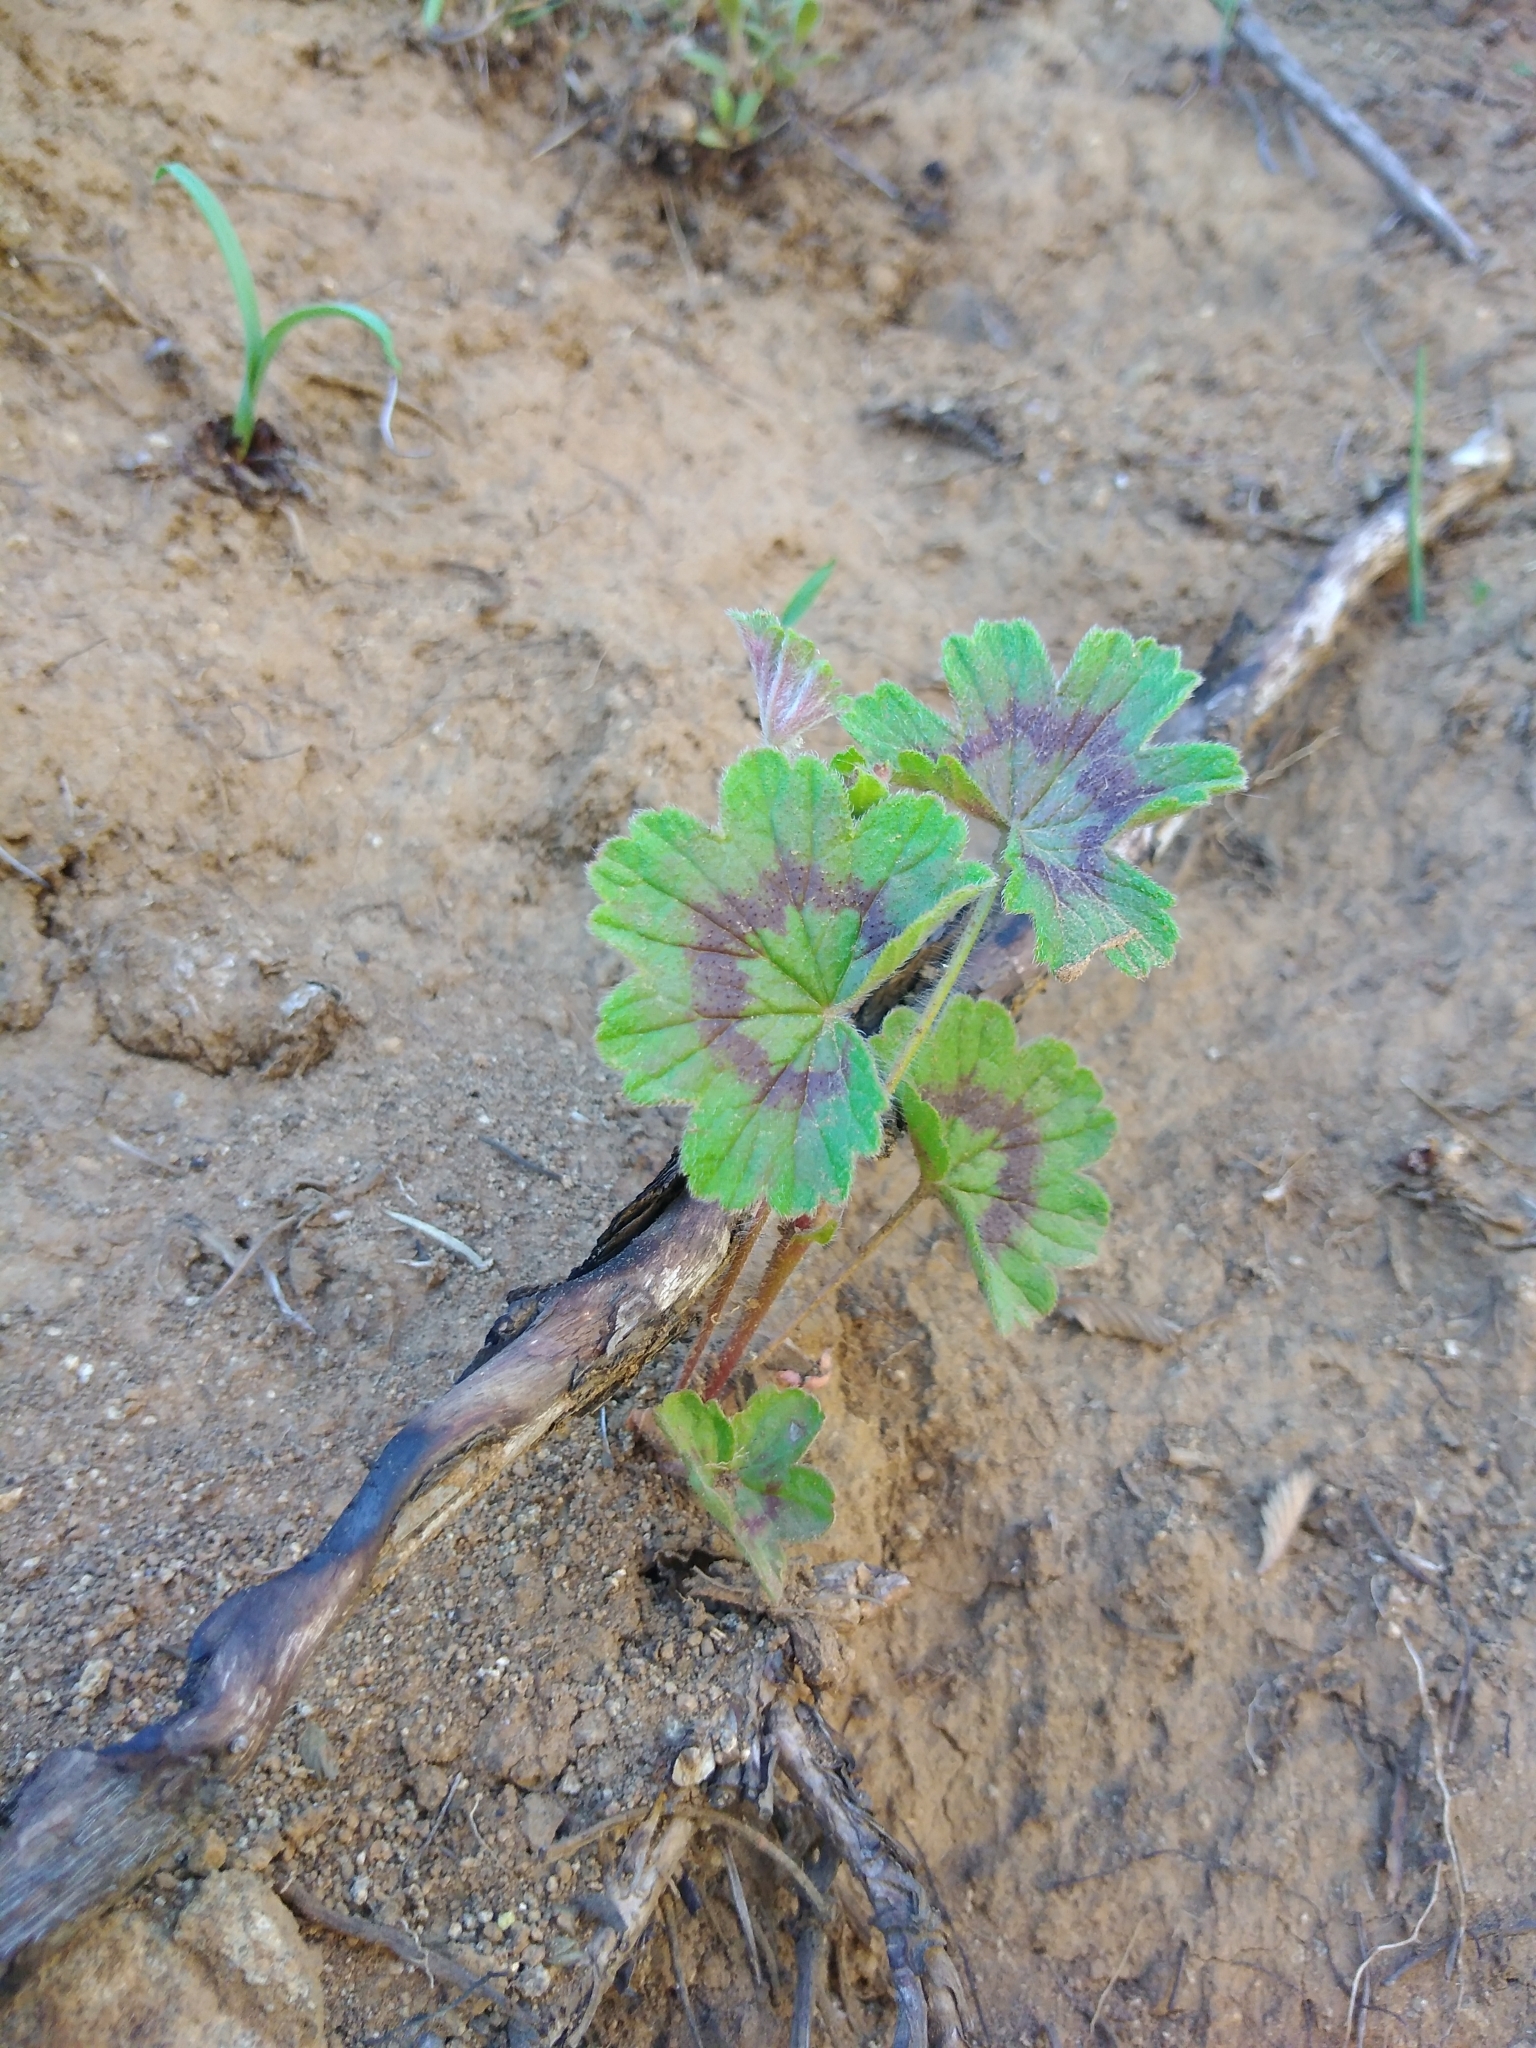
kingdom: Plantae
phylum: Tracheophyta
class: Magnoliopsida
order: Geraniales
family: Geraniaceae
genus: Pelargonium
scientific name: Pelargonium alchemilloides
